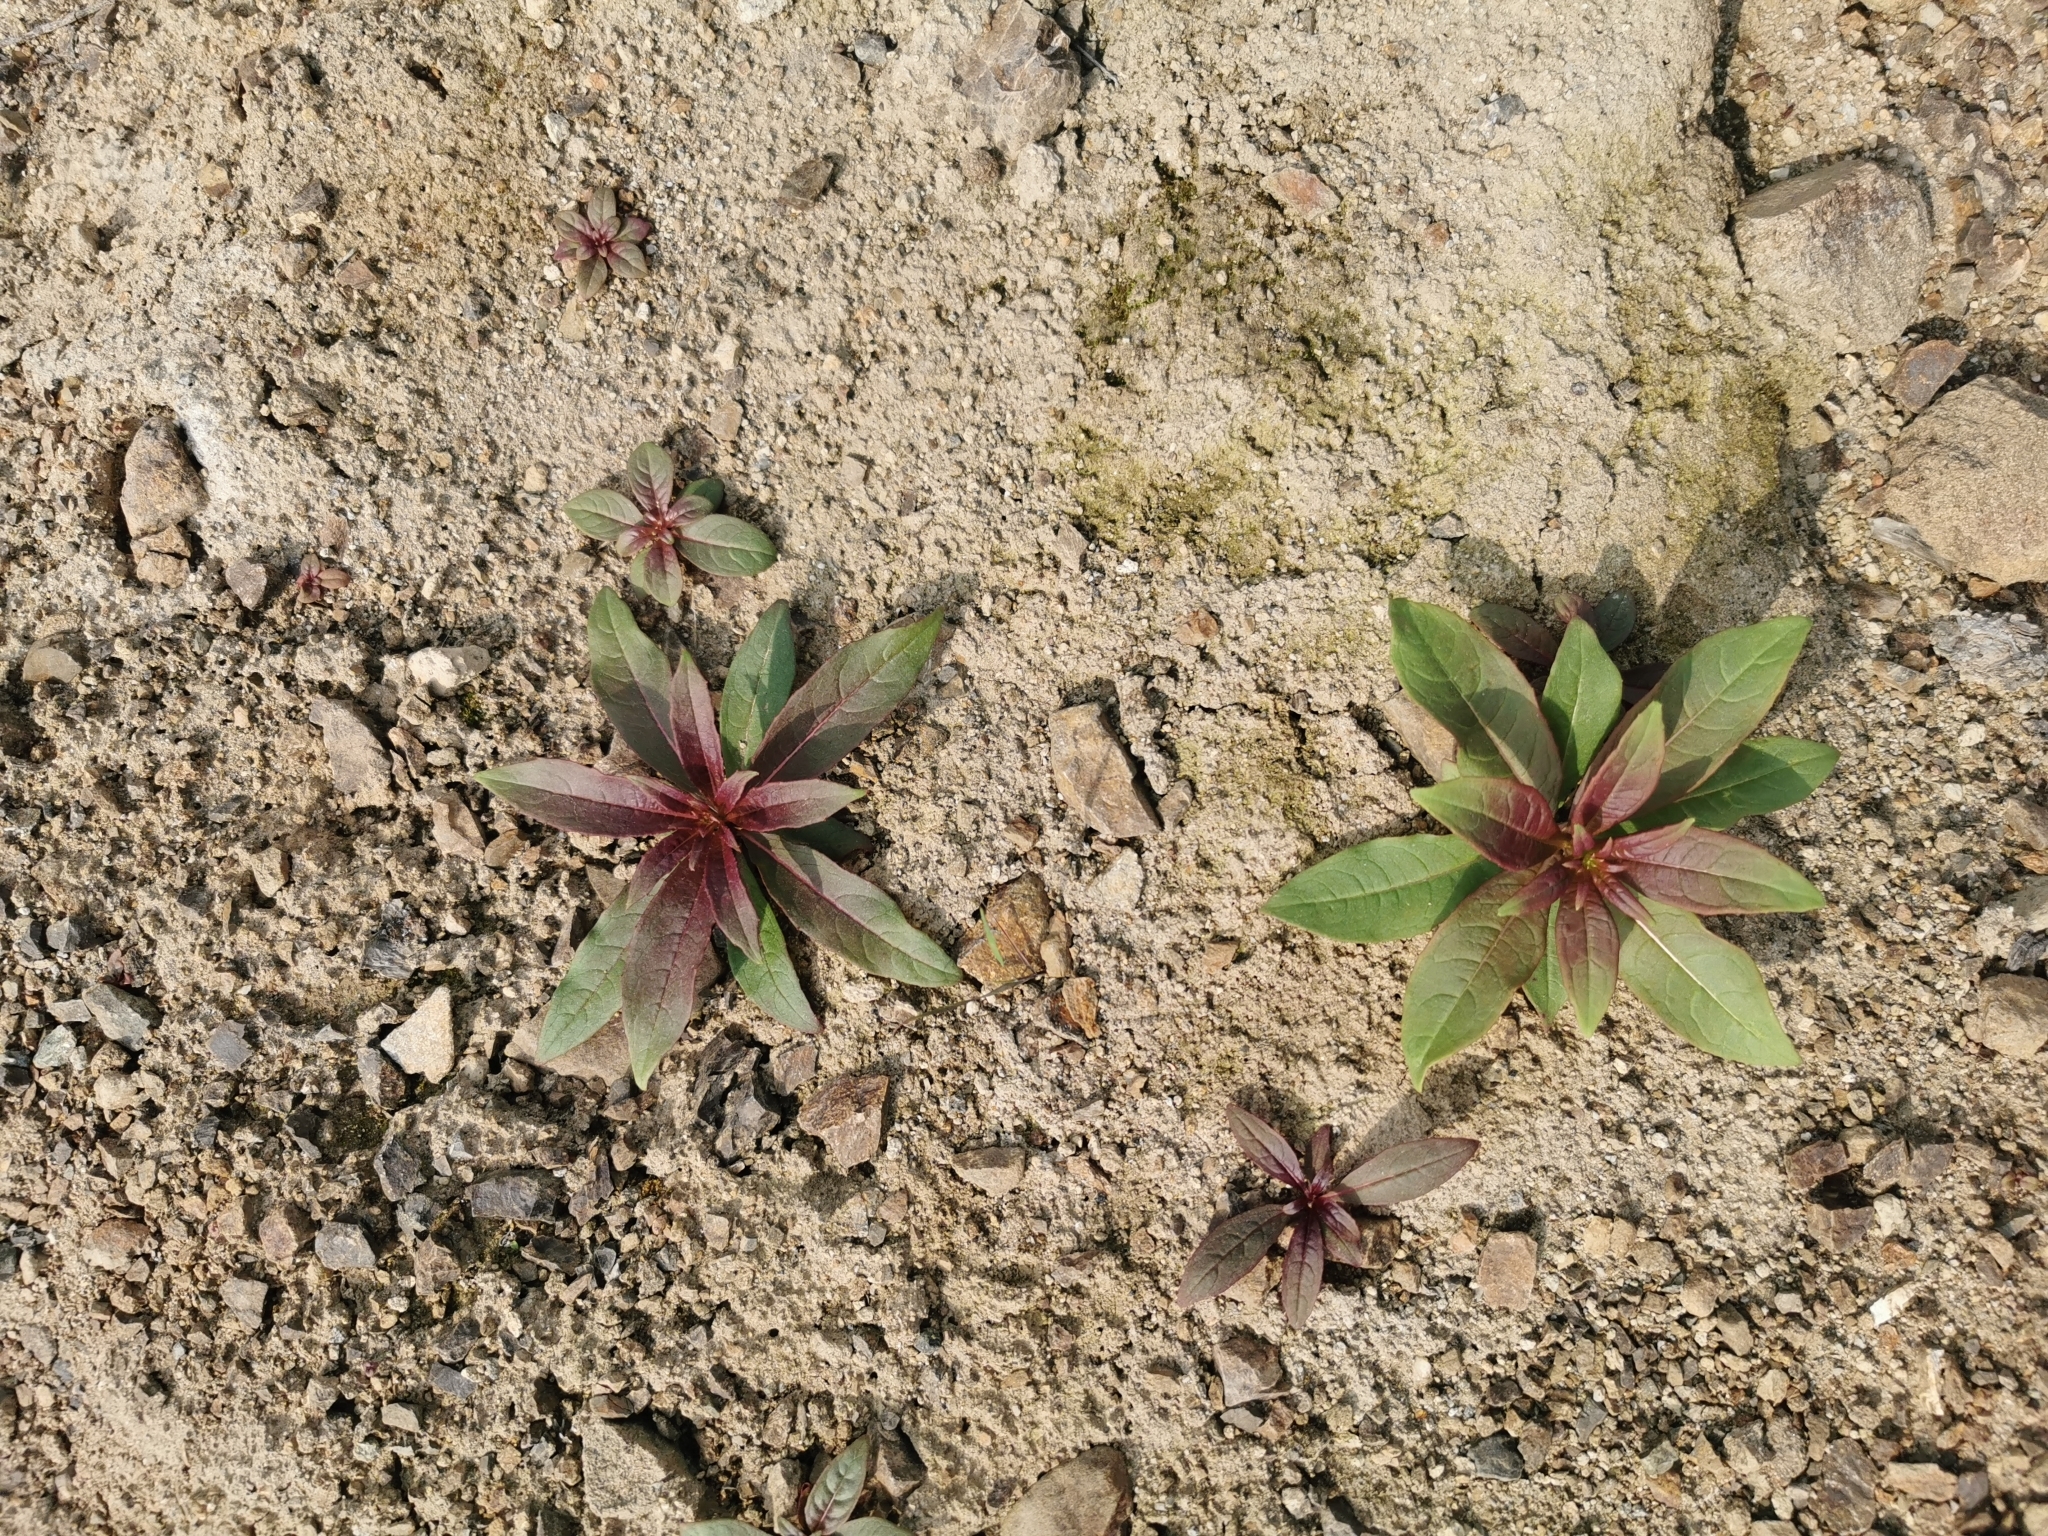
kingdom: Plantae
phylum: Tracheophyta
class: Magnoliopsida
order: Myrtales
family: Onagraceae
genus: Chamaenerion
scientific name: Chamaenerion angustifolium
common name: Fireweed
